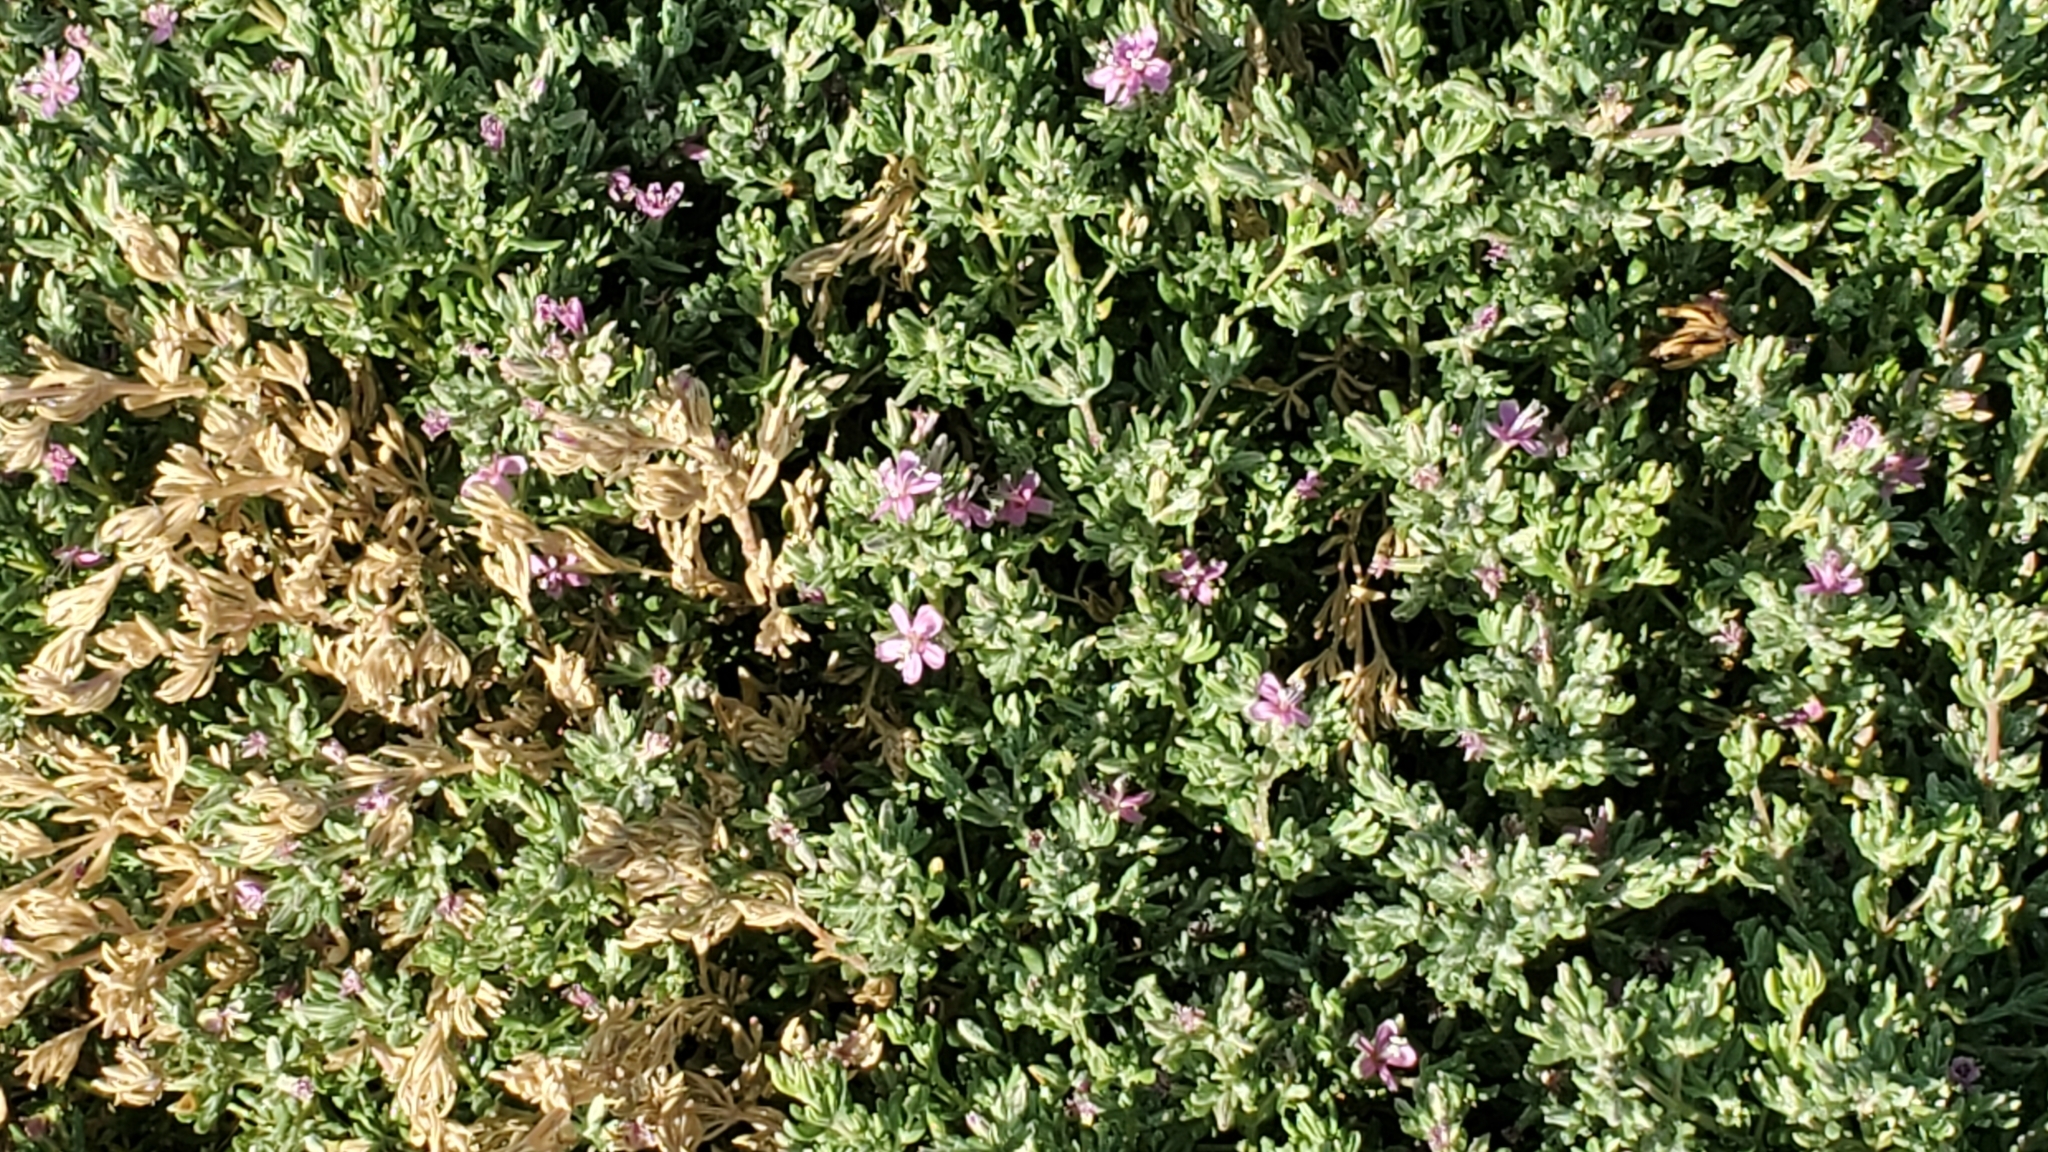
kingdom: Plantae
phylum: Tracheophyta
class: Magnoliopsida
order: Caryophyllales
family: Frankeniaceae
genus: Frankenia
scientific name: Frankenia salina
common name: Alkali seaheath
